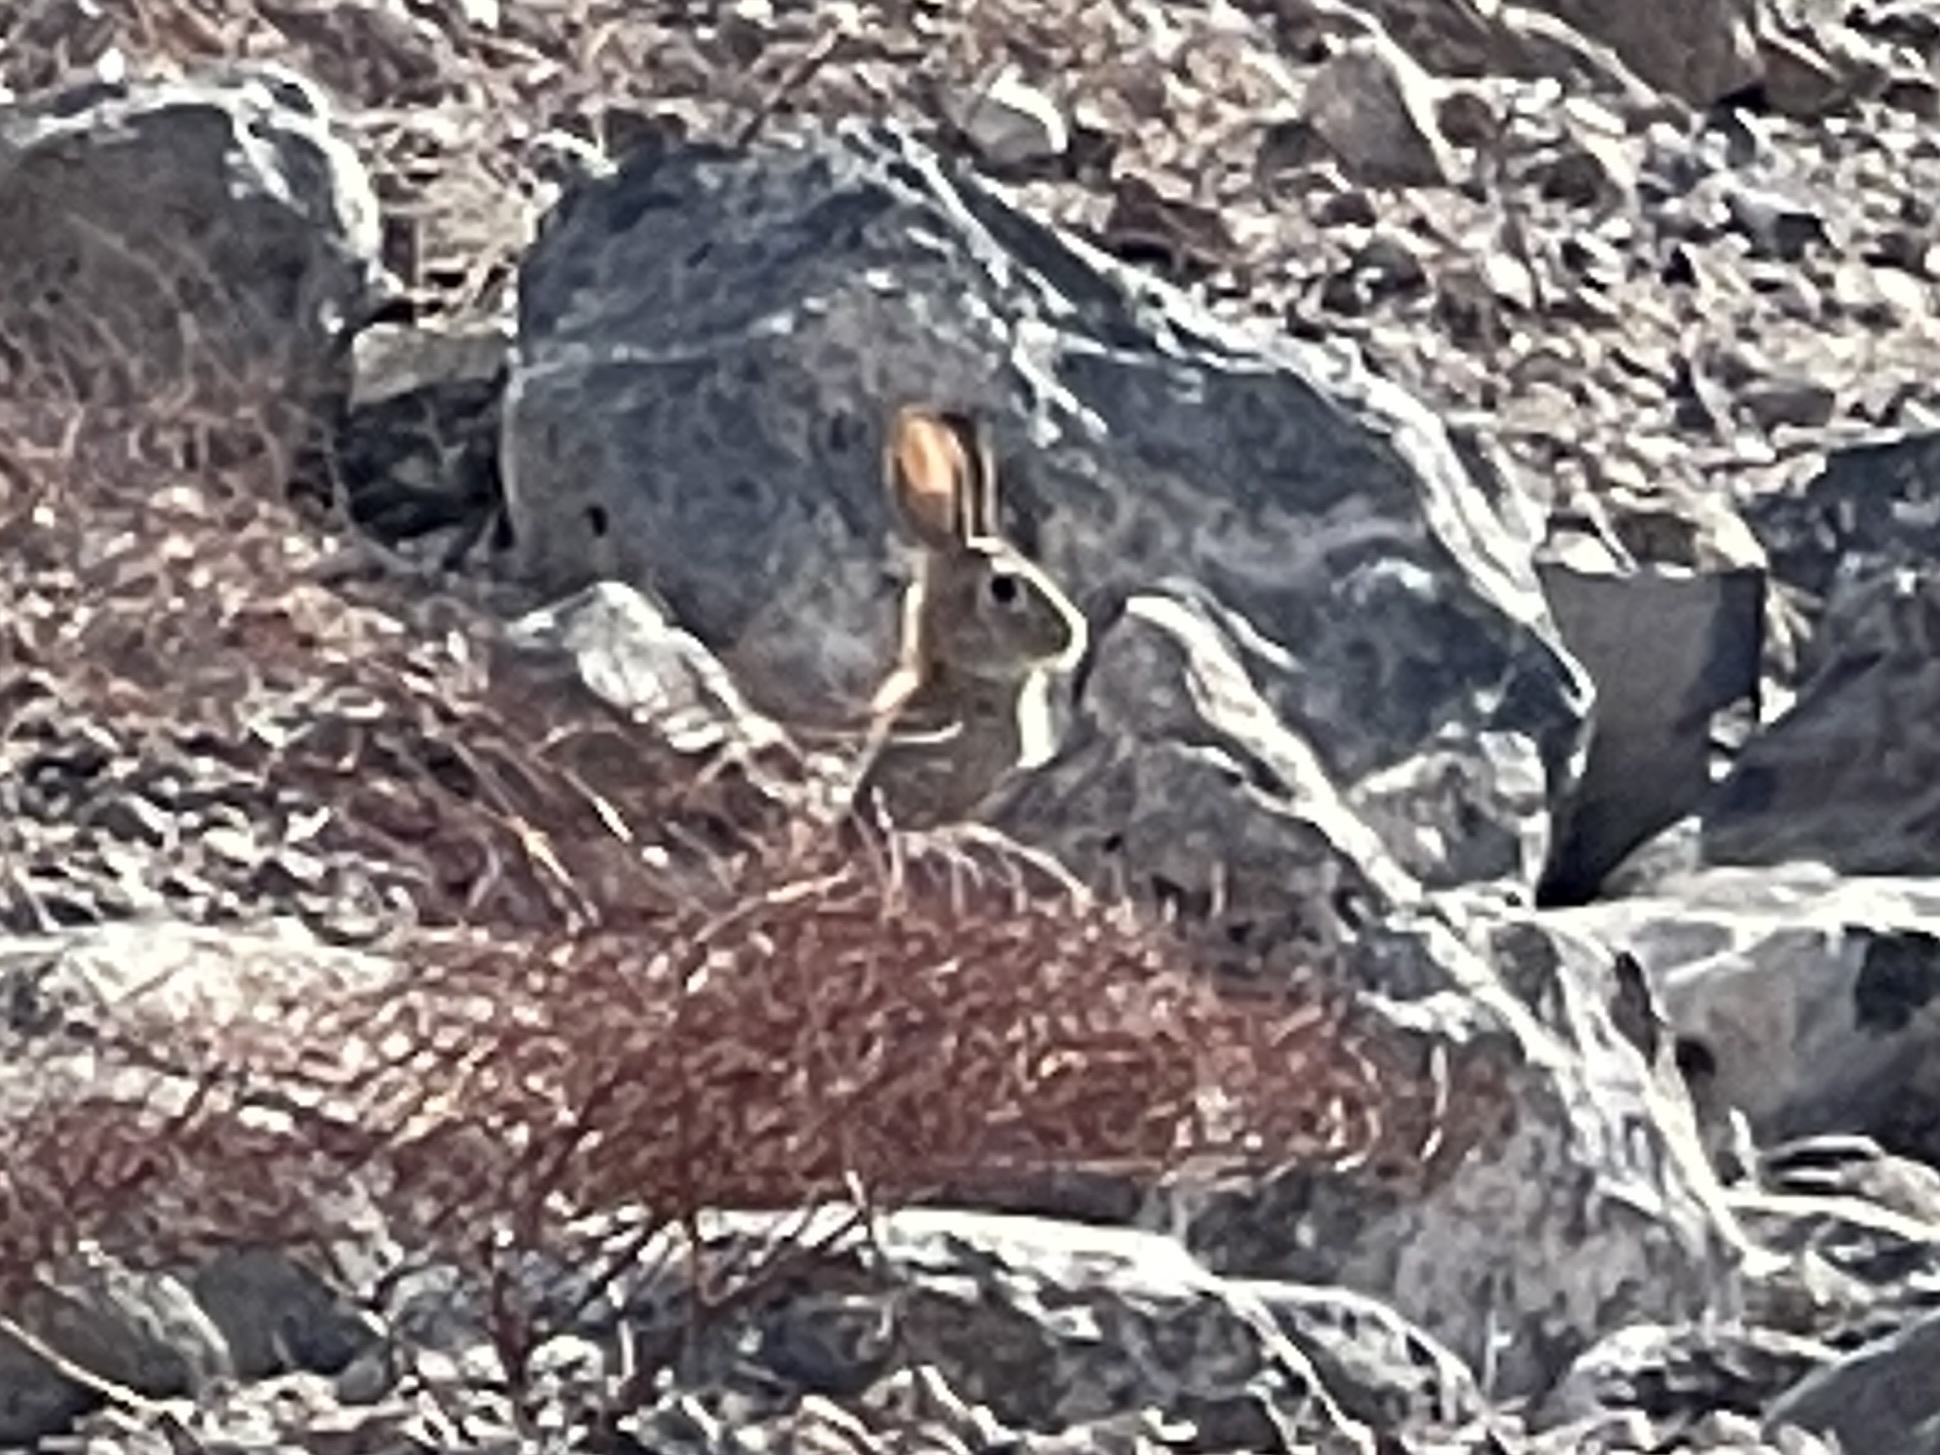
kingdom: Animalia
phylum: Chordata
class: Mammalia
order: Lagomorpha
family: Leporidae
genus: Sylvilagus
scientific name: Sylvilagus audubonii
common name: Desert cottontail
